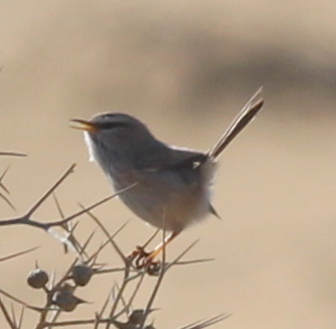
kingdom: Animalia
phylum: Chordata
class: Aves
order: Passeriformes
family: Scotocercidae
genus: Scotocerca
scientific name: Scotocerca inquieta
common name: Scrub warbler
